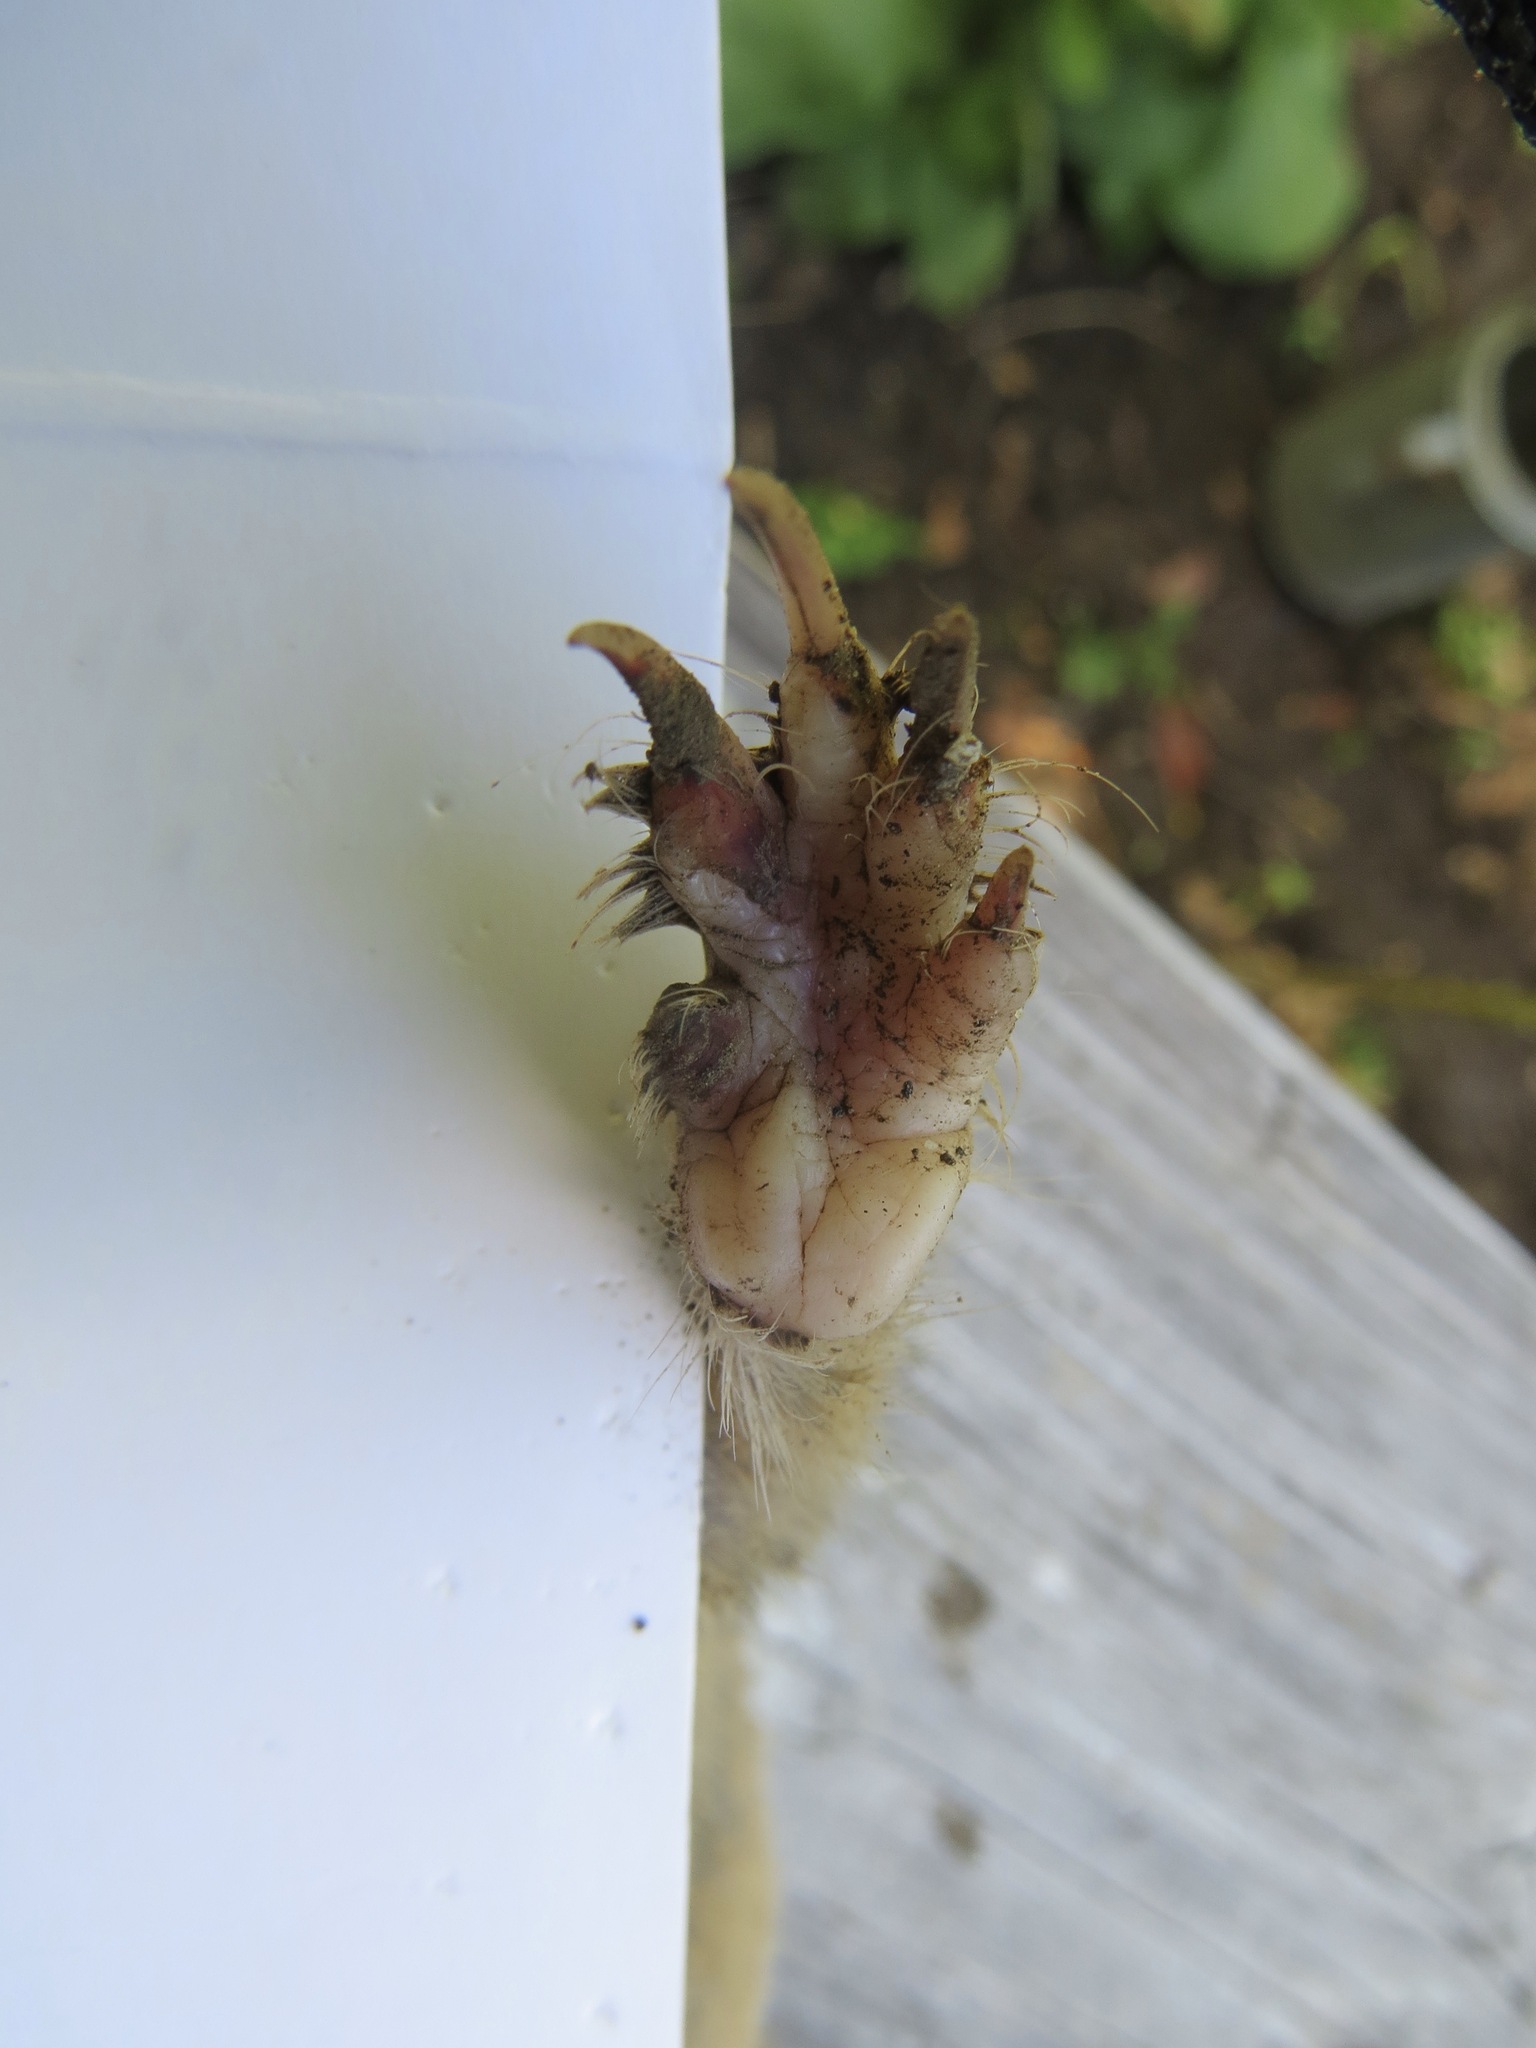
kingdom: Animalia
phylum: Chordata
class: Mammalia
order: Rodentia
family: Geomyidae
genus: Thomomys
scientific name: Thomomys bottae
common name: Botta's pocket gopher
